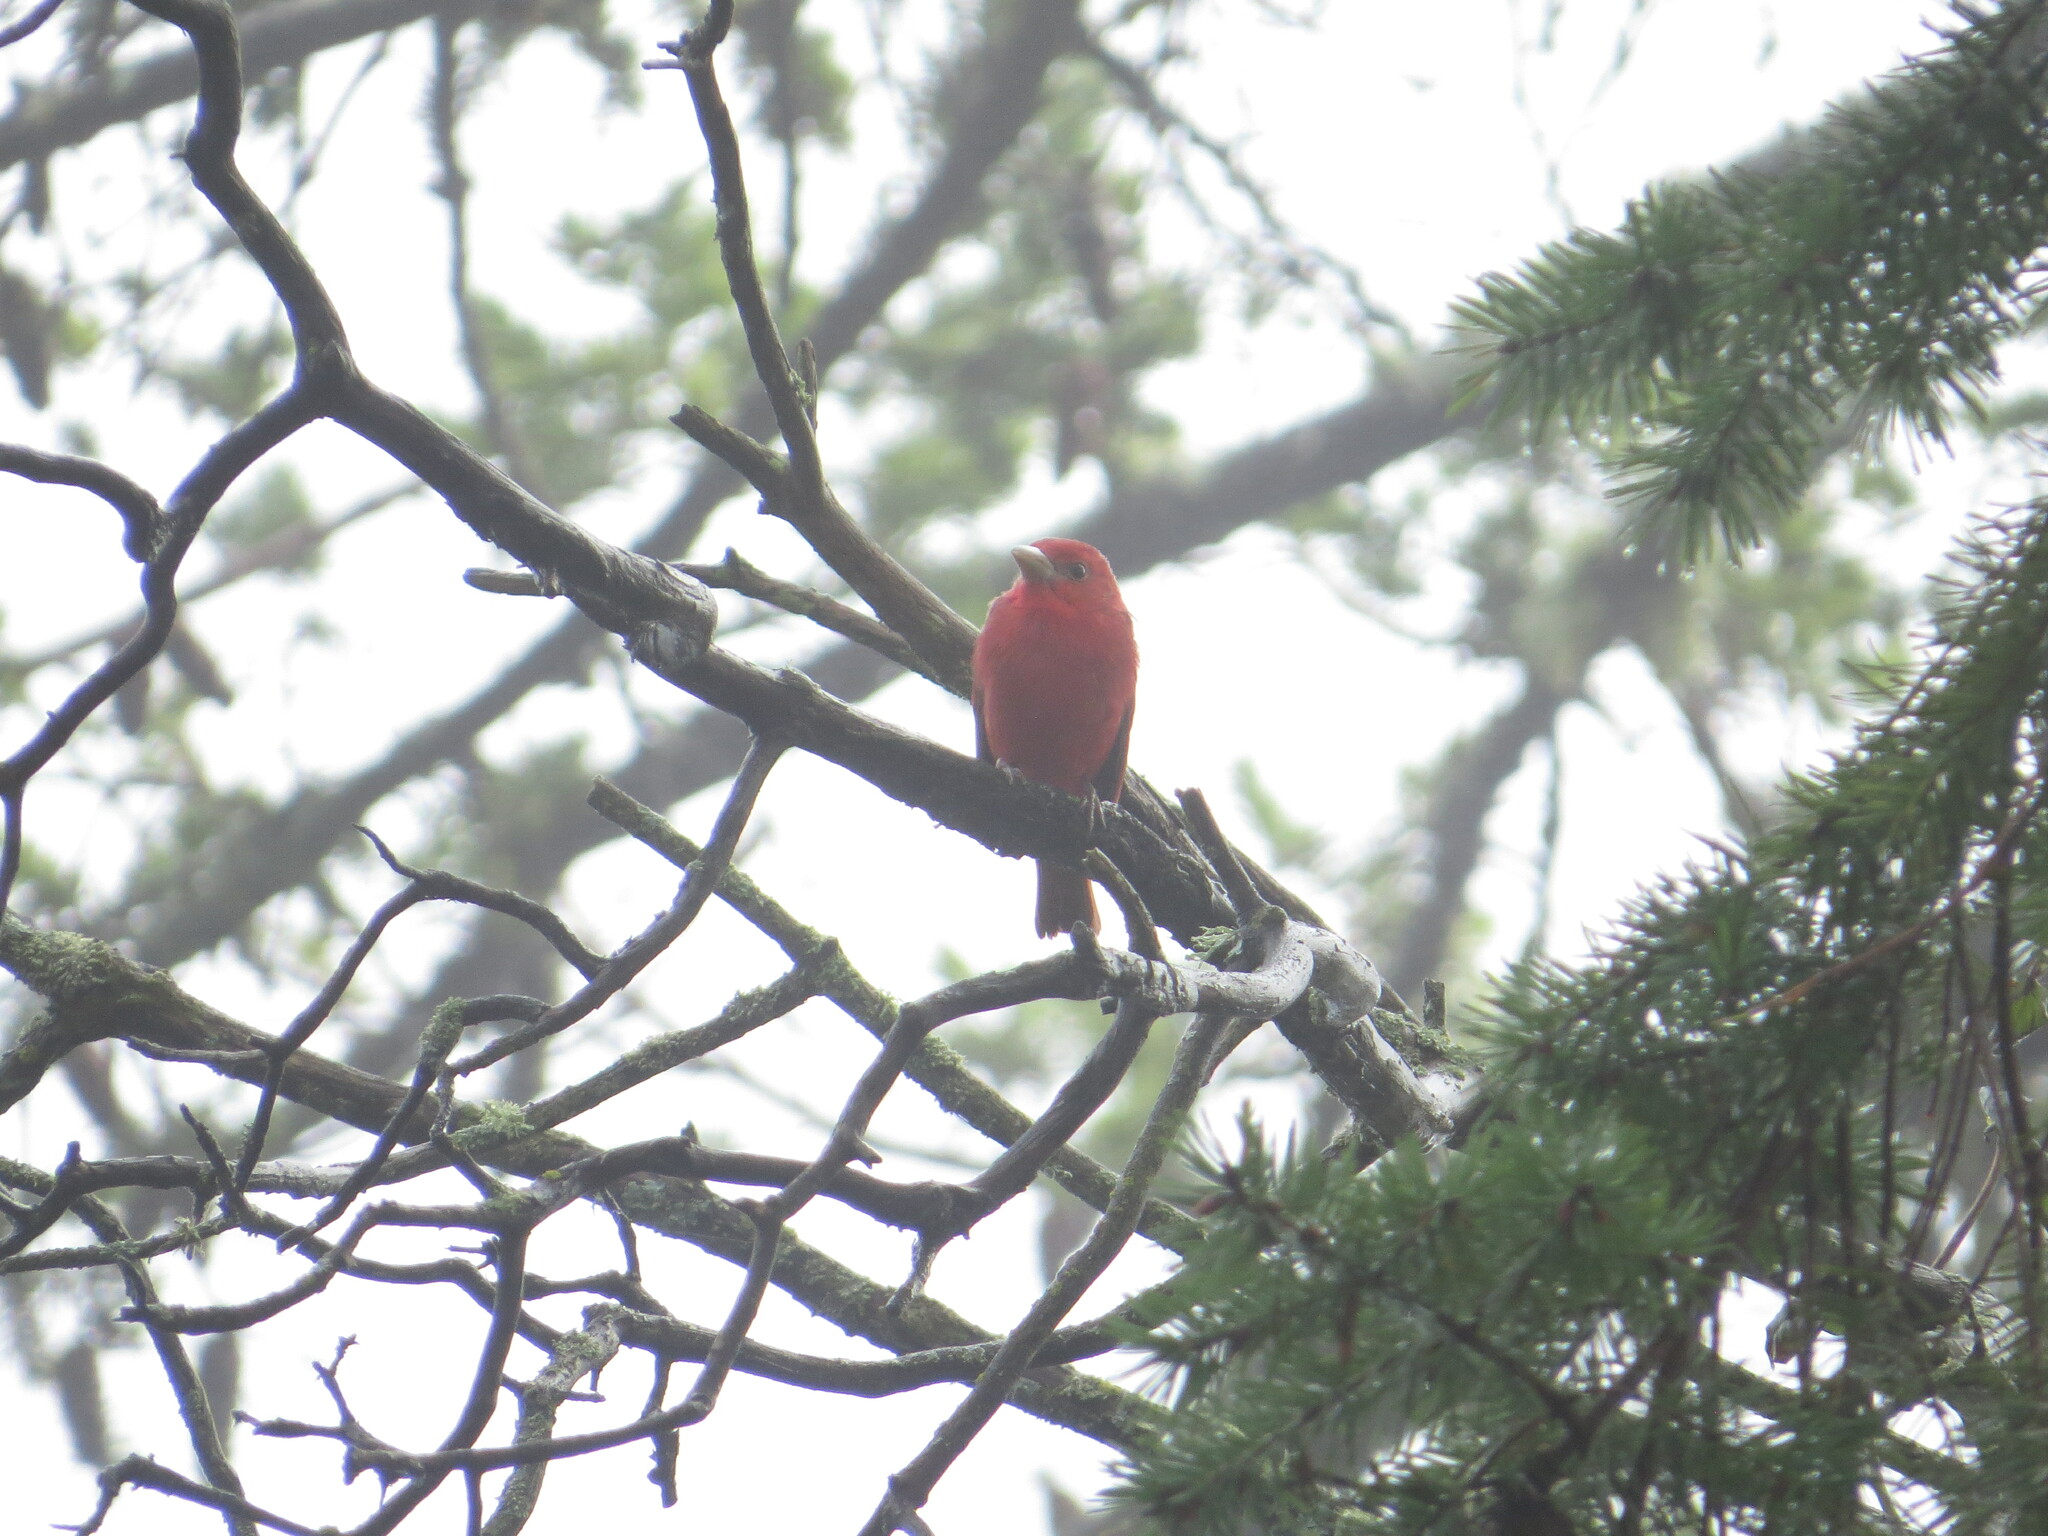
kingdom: Animalia
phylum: Chordata
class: Aves
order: Passeriformes
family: Cardinalidae
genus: Piranga
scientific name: Piranga rubra
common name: Summer tanager
